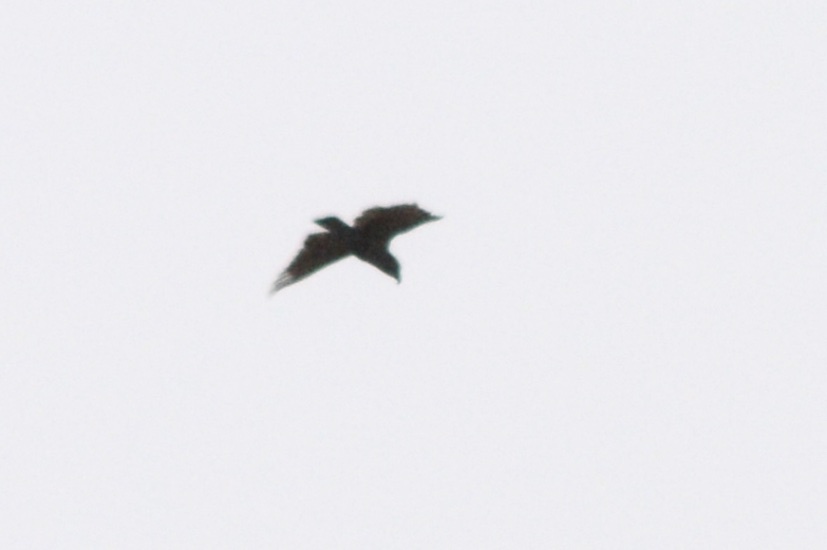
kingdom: Animalia
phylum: Chordata
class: Aves
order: Psittaciformes
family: Psittacidae
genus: Nestor
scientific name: Nestor meridionalis
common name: New zealand kaka
